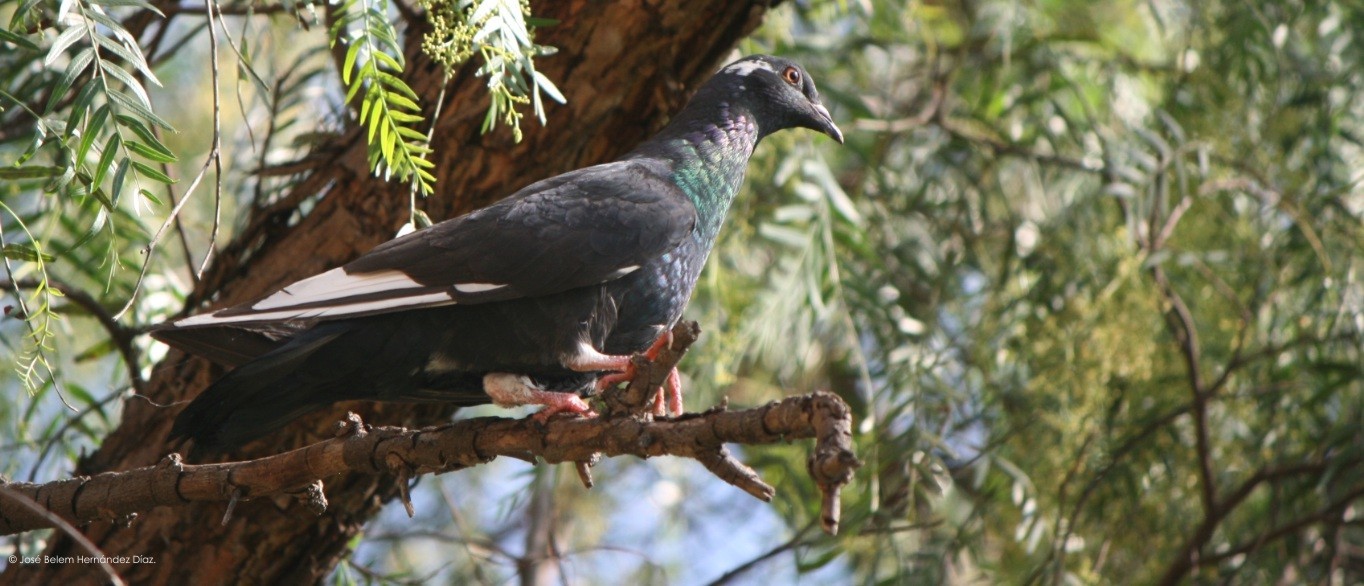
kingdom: Animalia
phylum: Chordata
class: Aves
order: Columbiformes
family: Columbidae
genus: Columba
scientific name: Columba livia
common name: Rock pigeon
